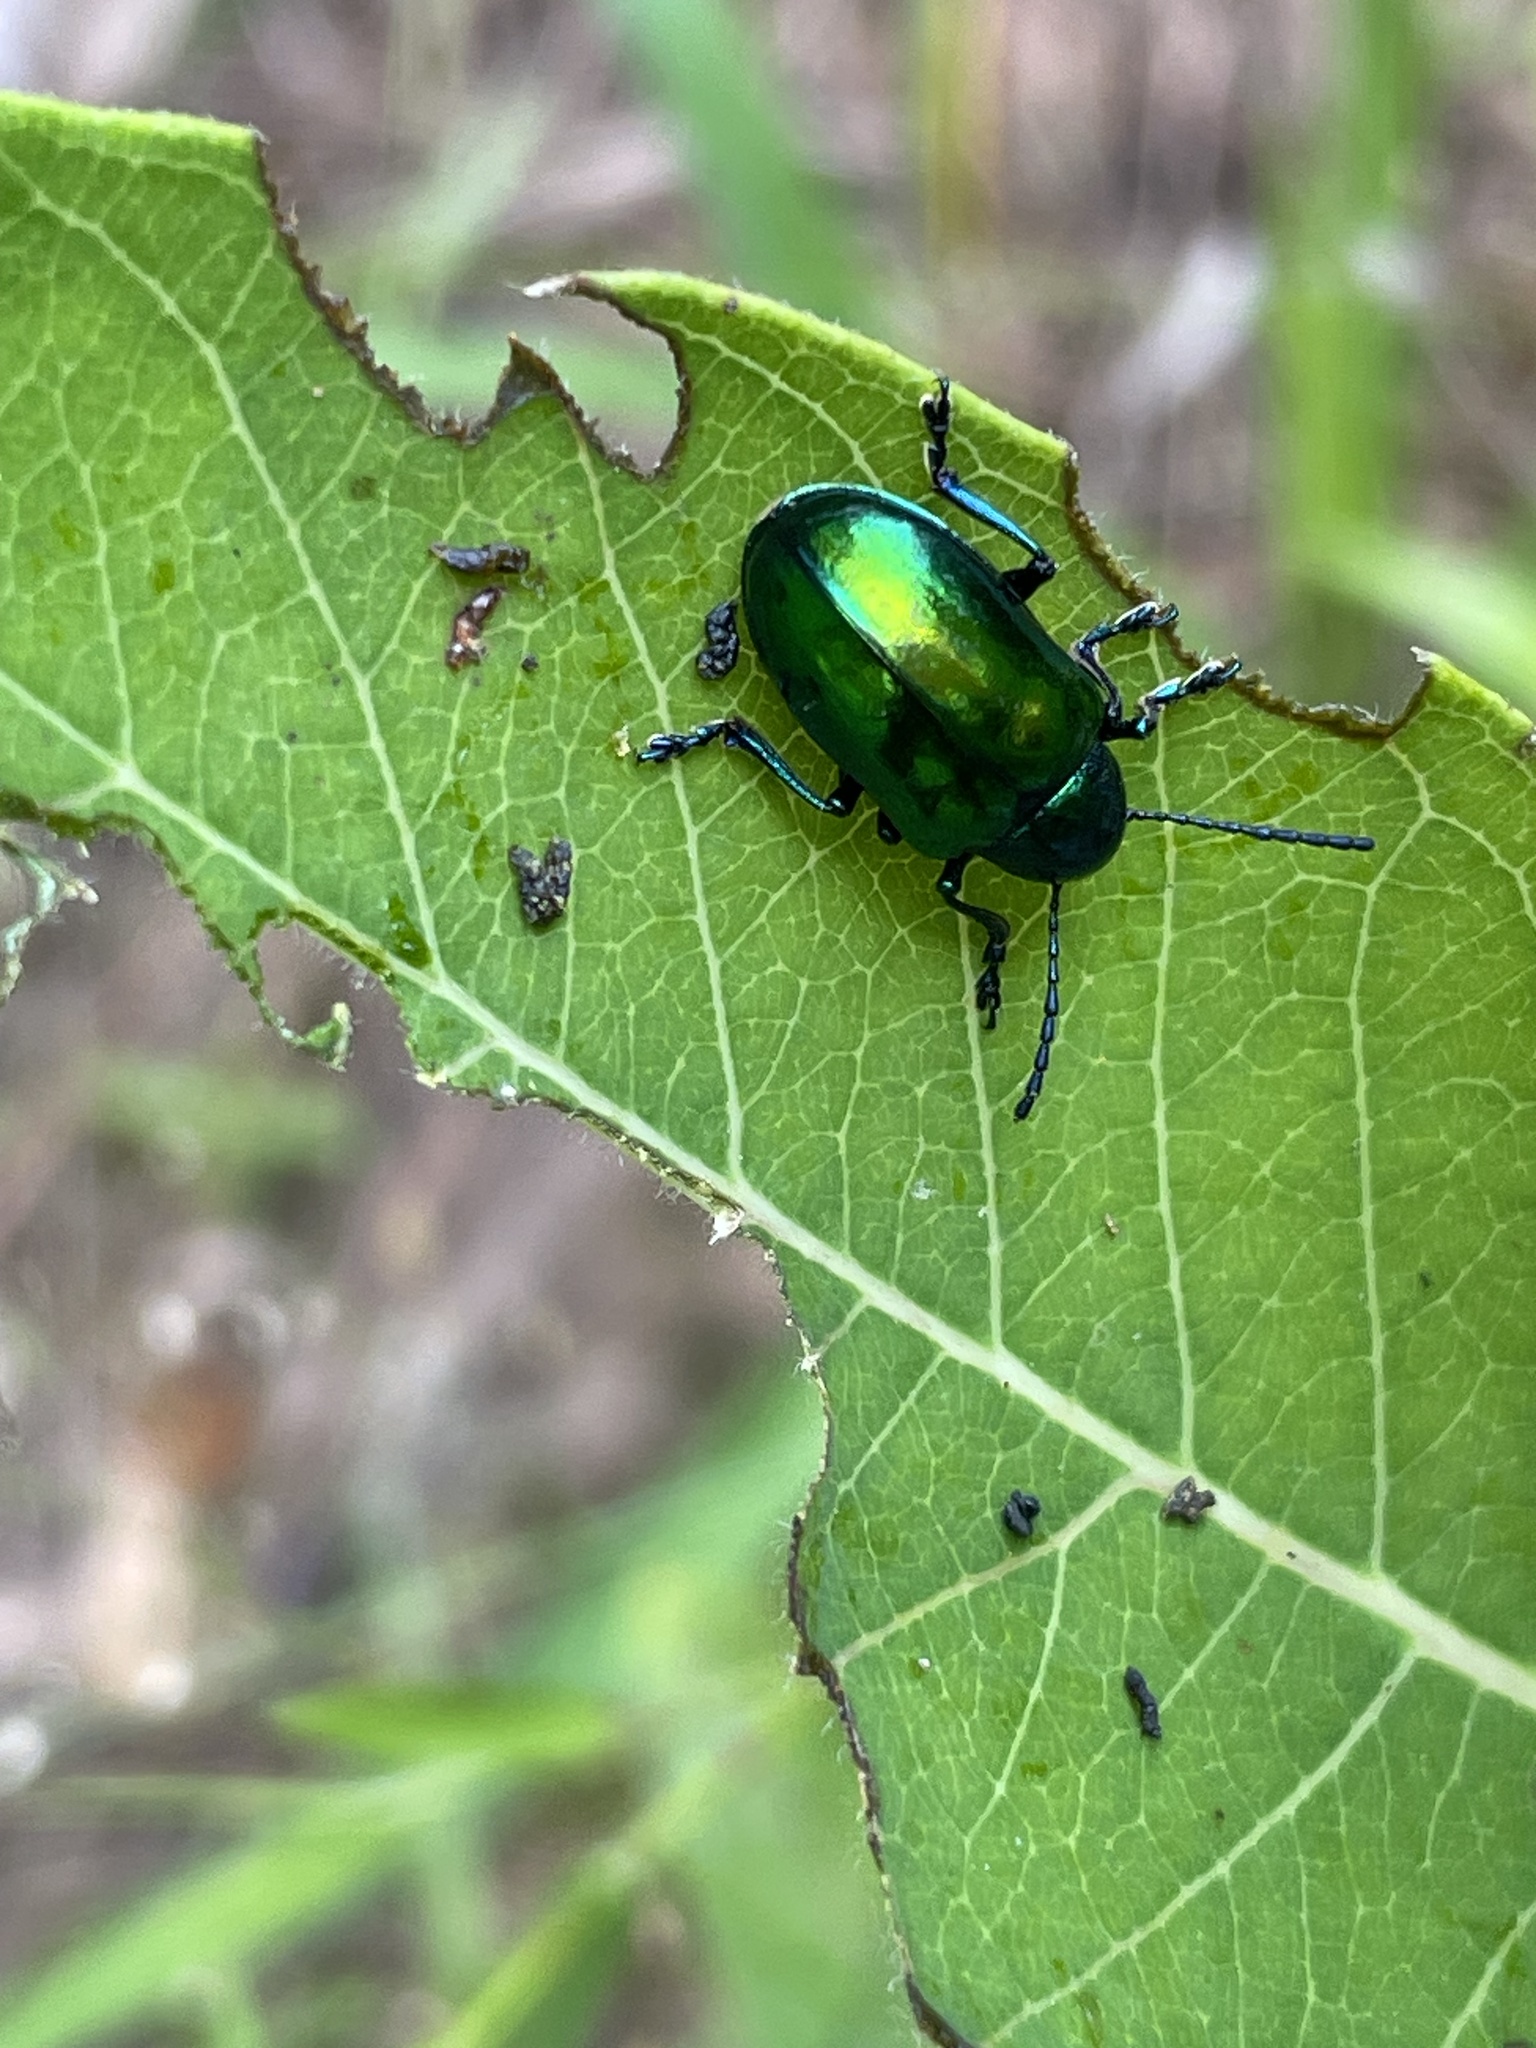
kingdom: Animalia
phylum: Arthropoda
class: Insecta
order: Coleoptera
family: Chrysomelidae
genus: Chrysochus
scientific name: Chrysochus auratus
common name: Dogbane leaf beetle
